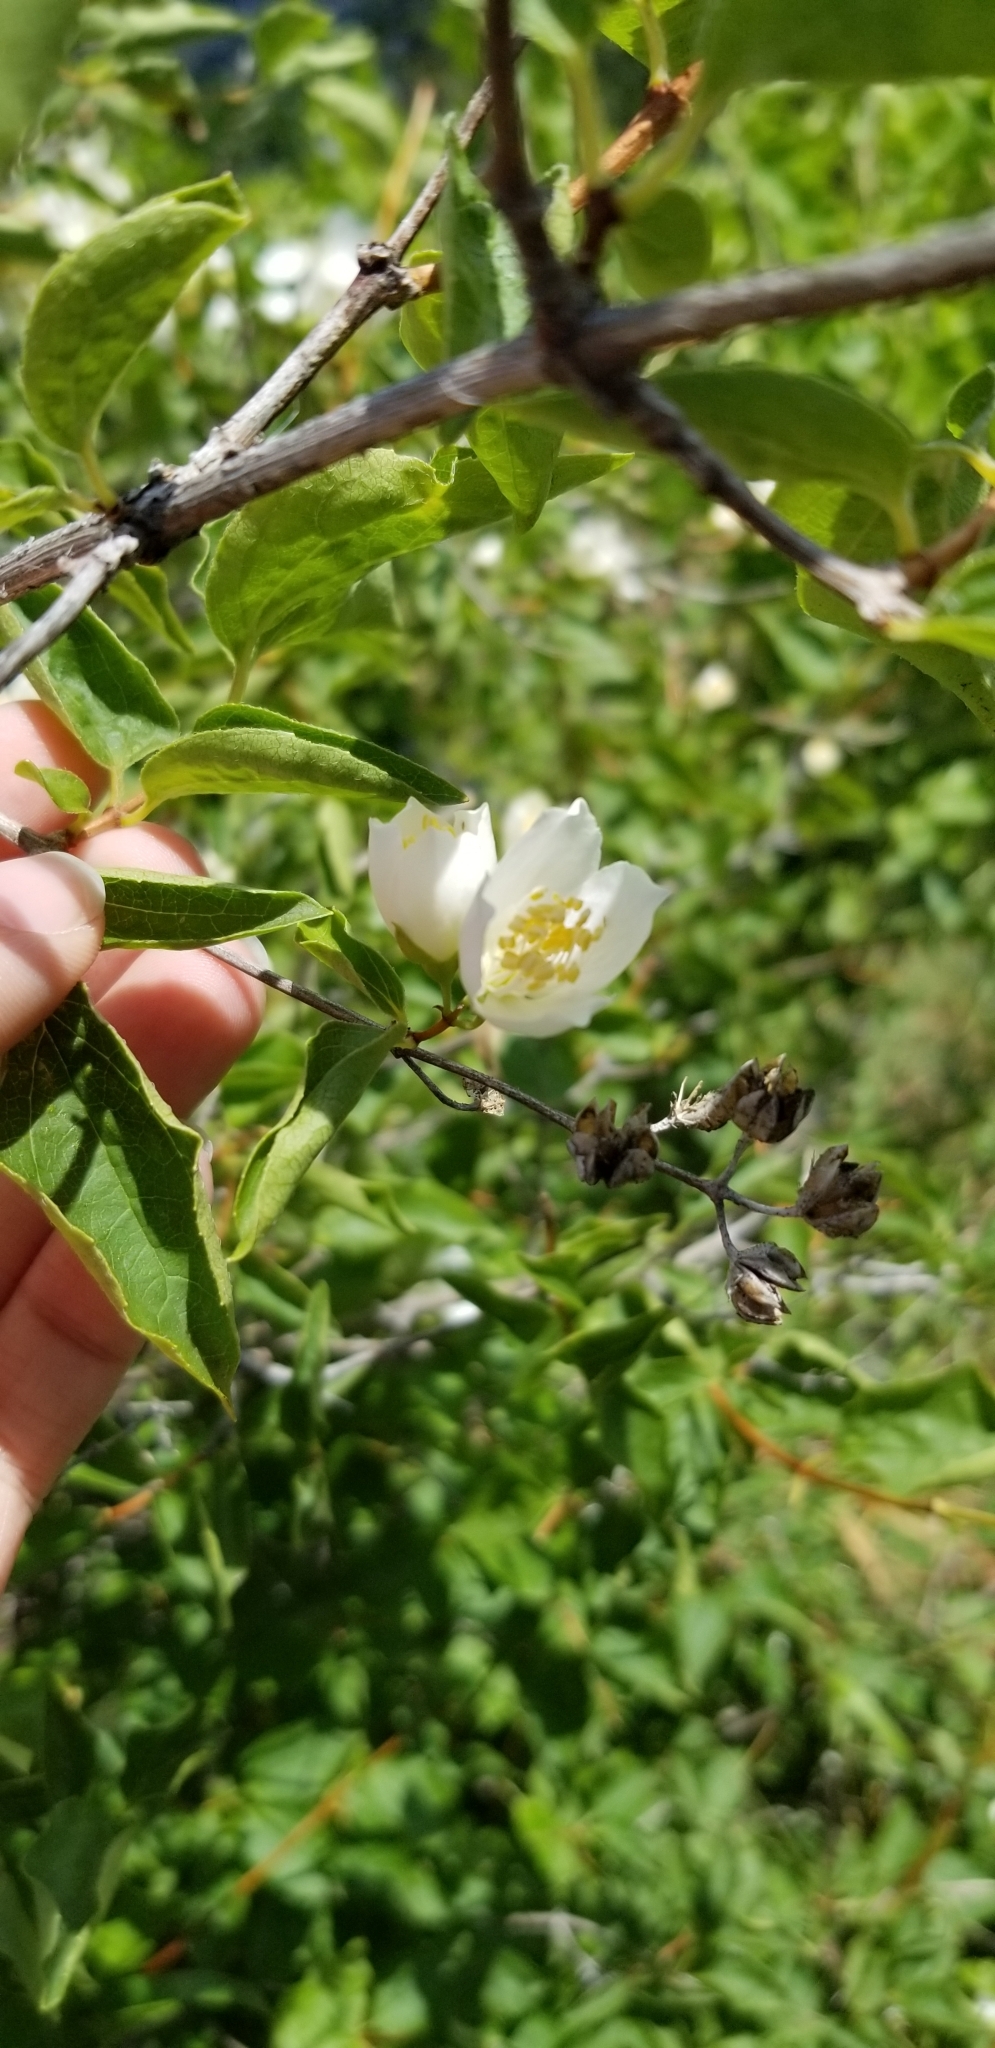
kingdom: Plantae
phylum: Tracheophyta
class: Magnoliopsida
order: Cornales
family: Hydrangeaceae
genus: Philadelphus
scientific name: Philadelphus lewisii
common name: Lewis's mock orange
